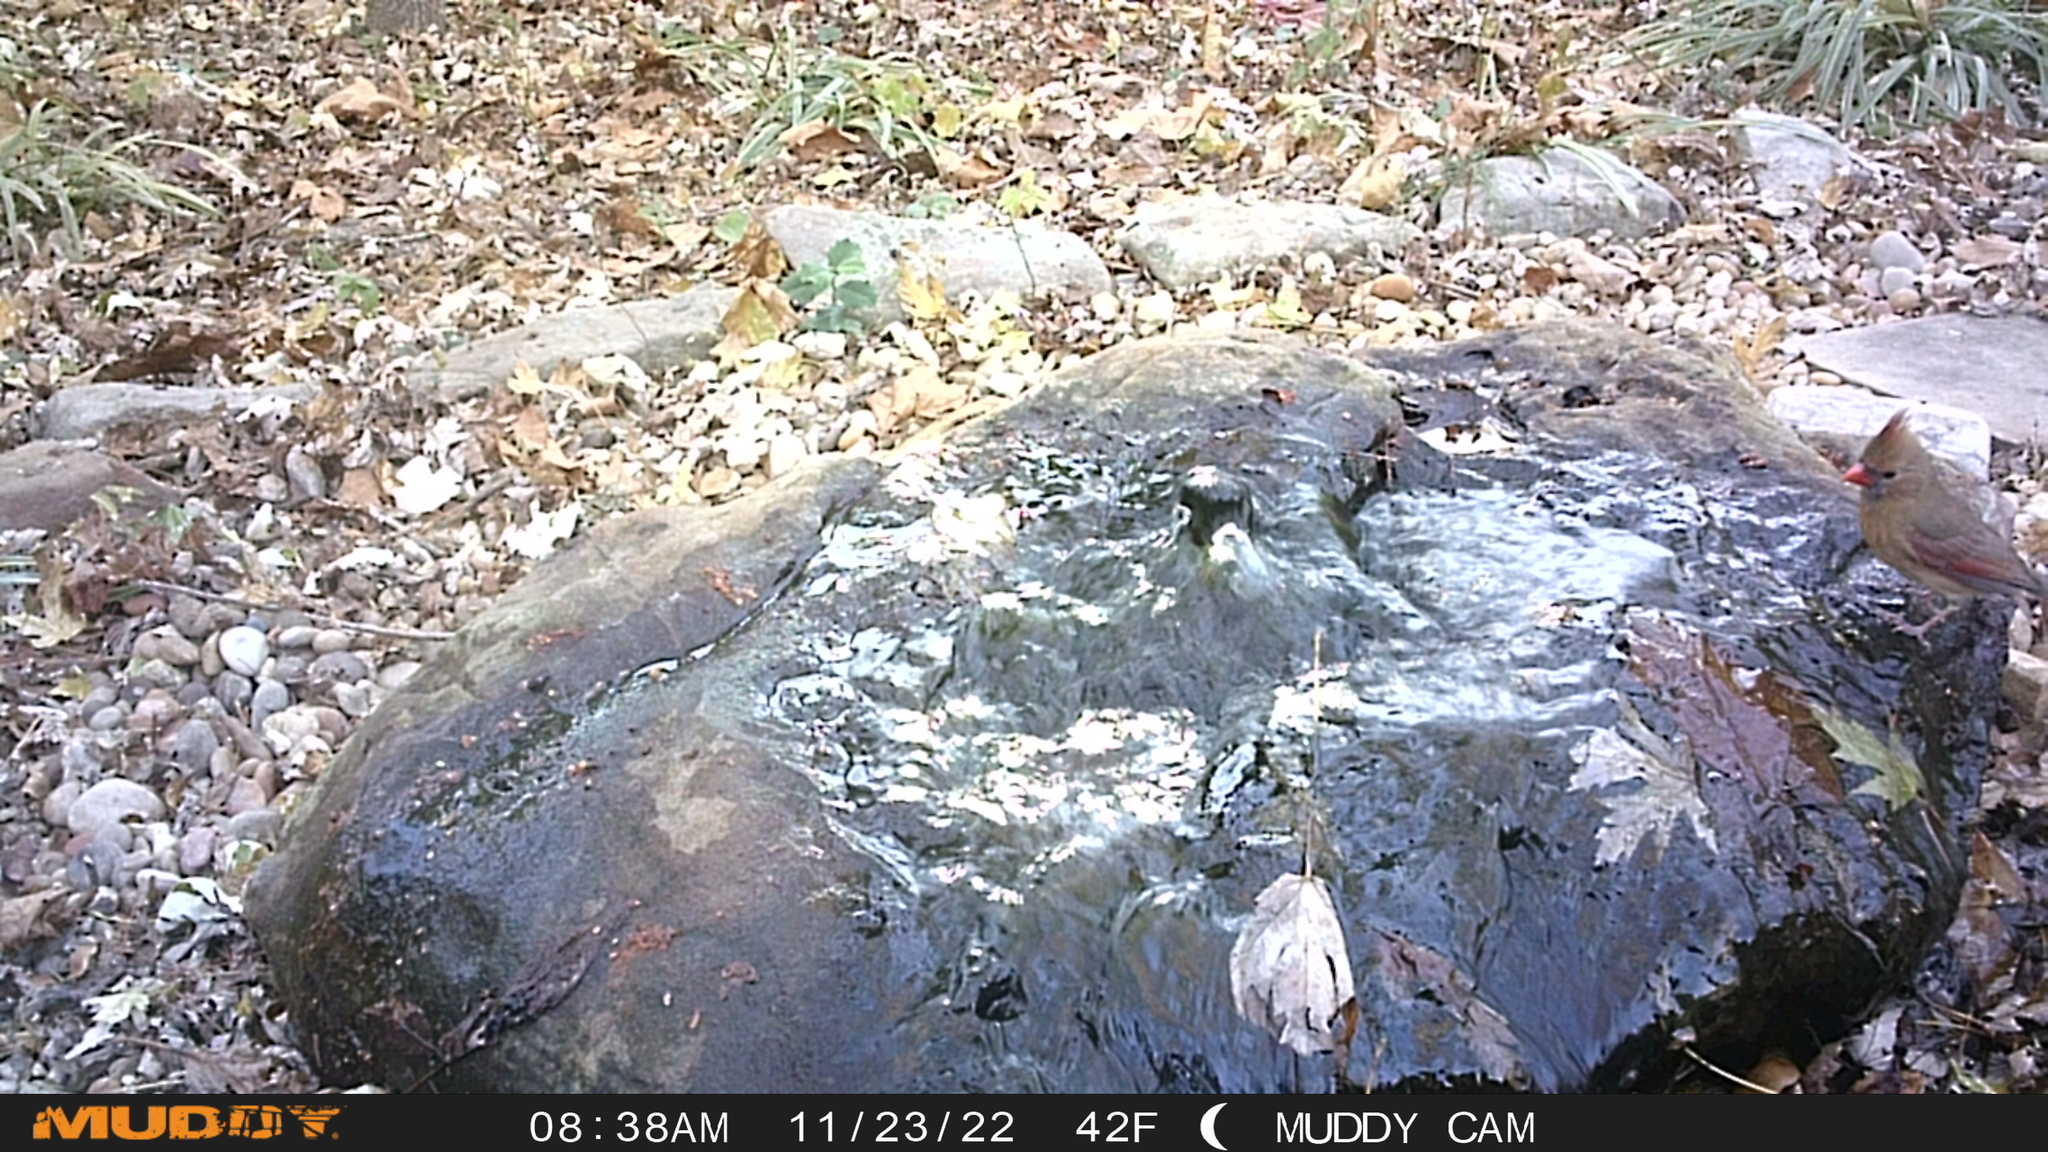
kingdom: Animalia
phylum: Chordata
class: Aves
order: Passeriformes
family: Cardinalidae
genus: Cardinalis
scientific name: Cardinalis cardinalis
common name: Northern cardinal
